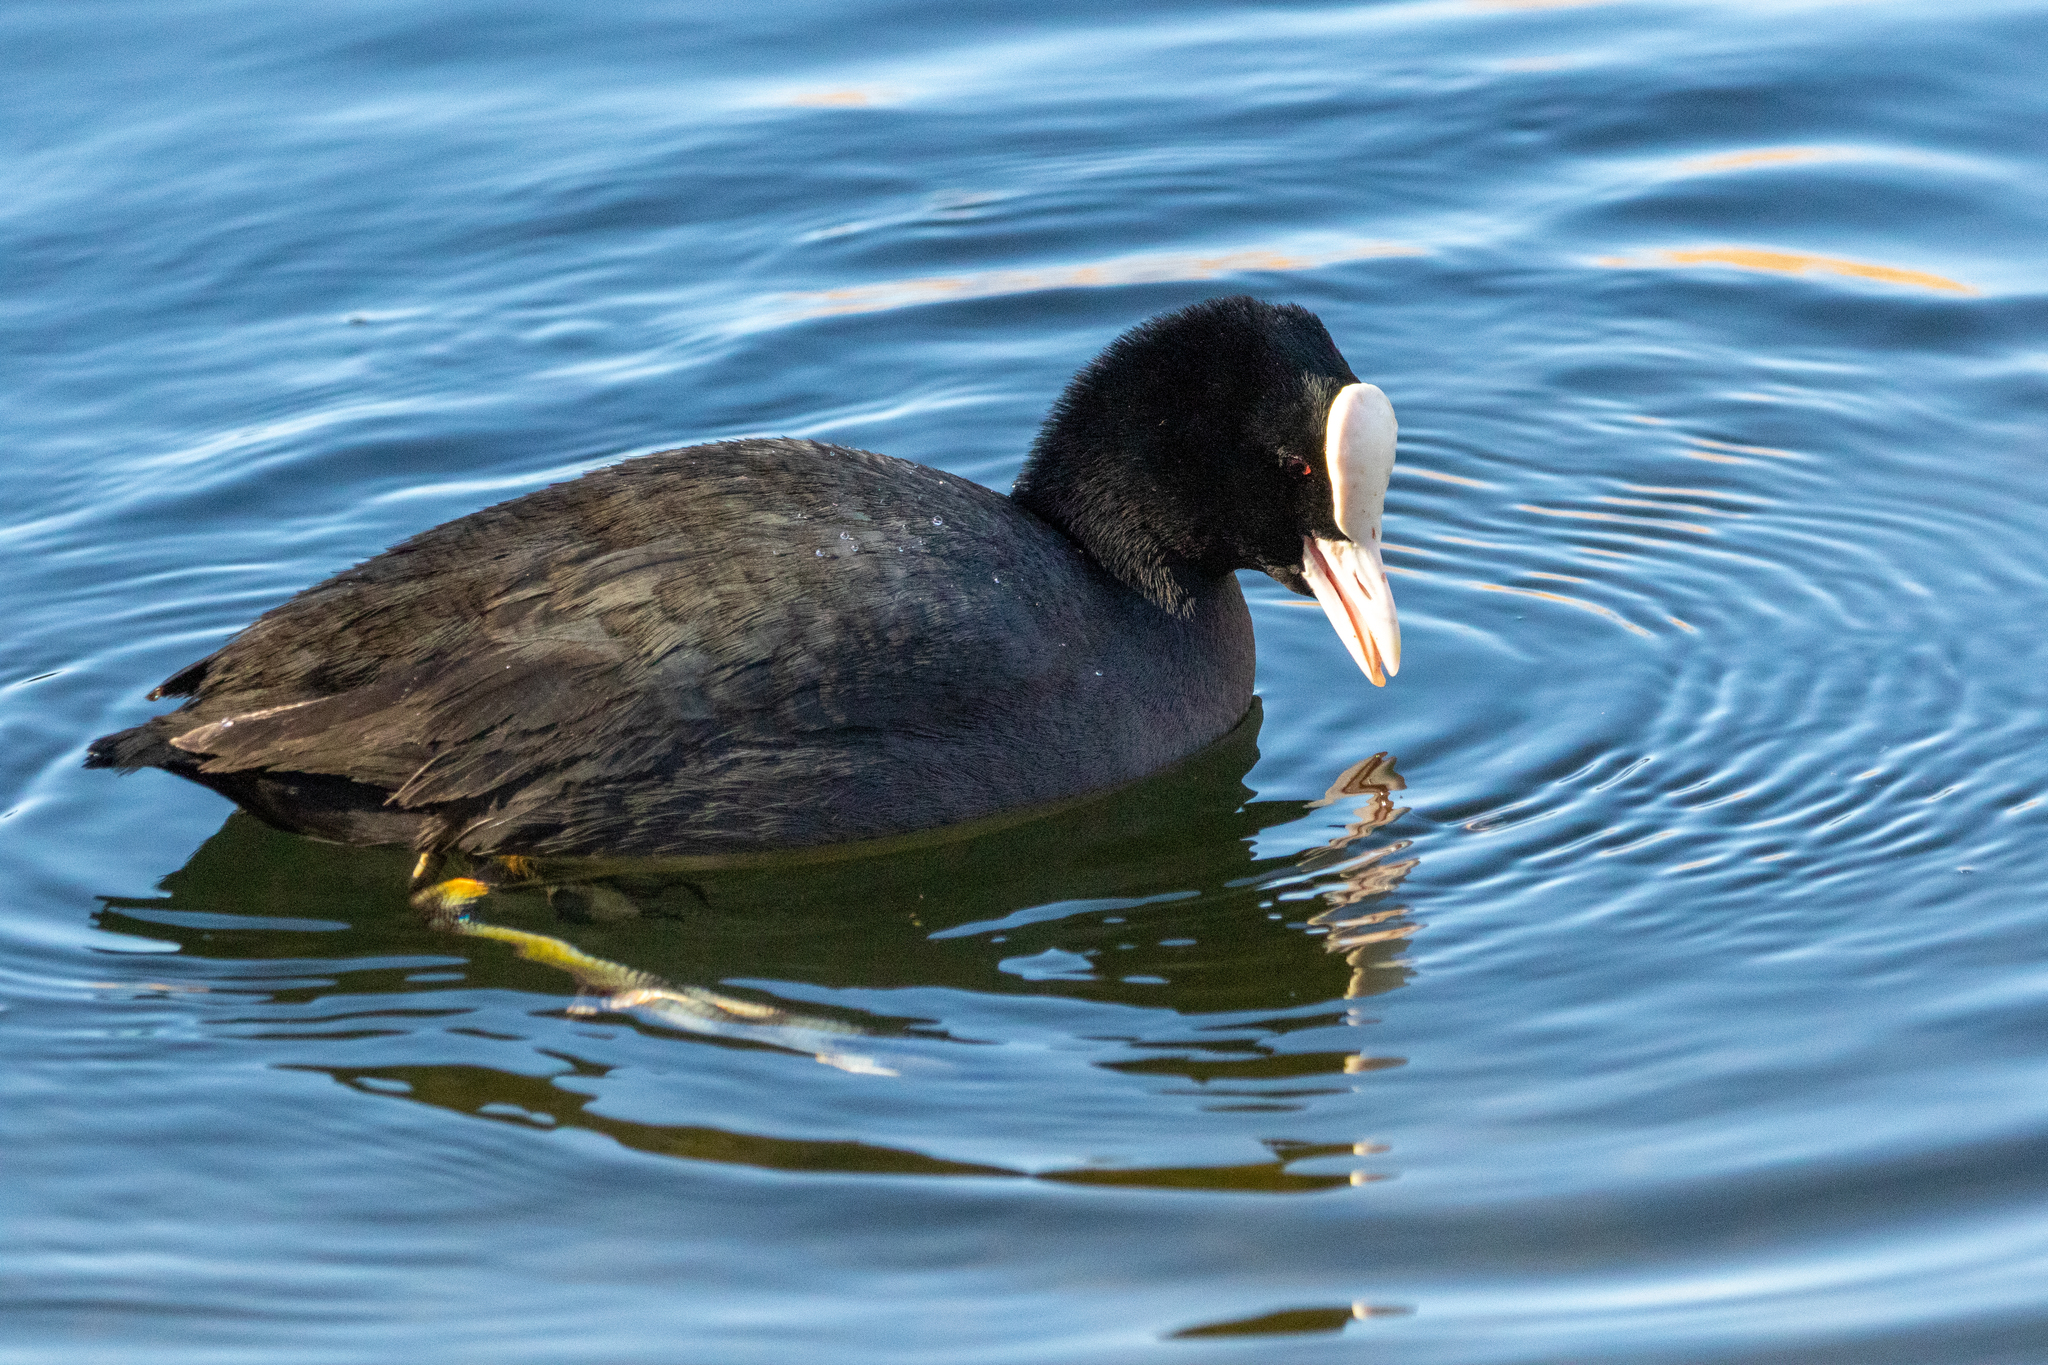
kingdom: Animalia
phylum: Chordata
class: Aves
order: Gruiformes
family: Rallidae
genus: Fulica
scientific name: Fulica atra
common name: Eurasian coot
